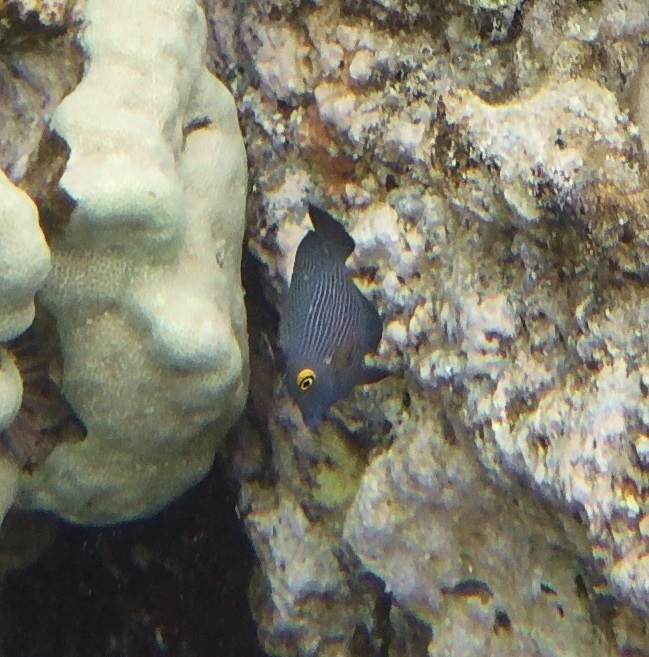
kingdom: Animalia
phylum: Chordata
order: Perciformes
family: Acanthuridae
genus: Ctenochaetus
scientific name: Ctenochaetus strigosus
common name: Bristletoothed surgeonfish
